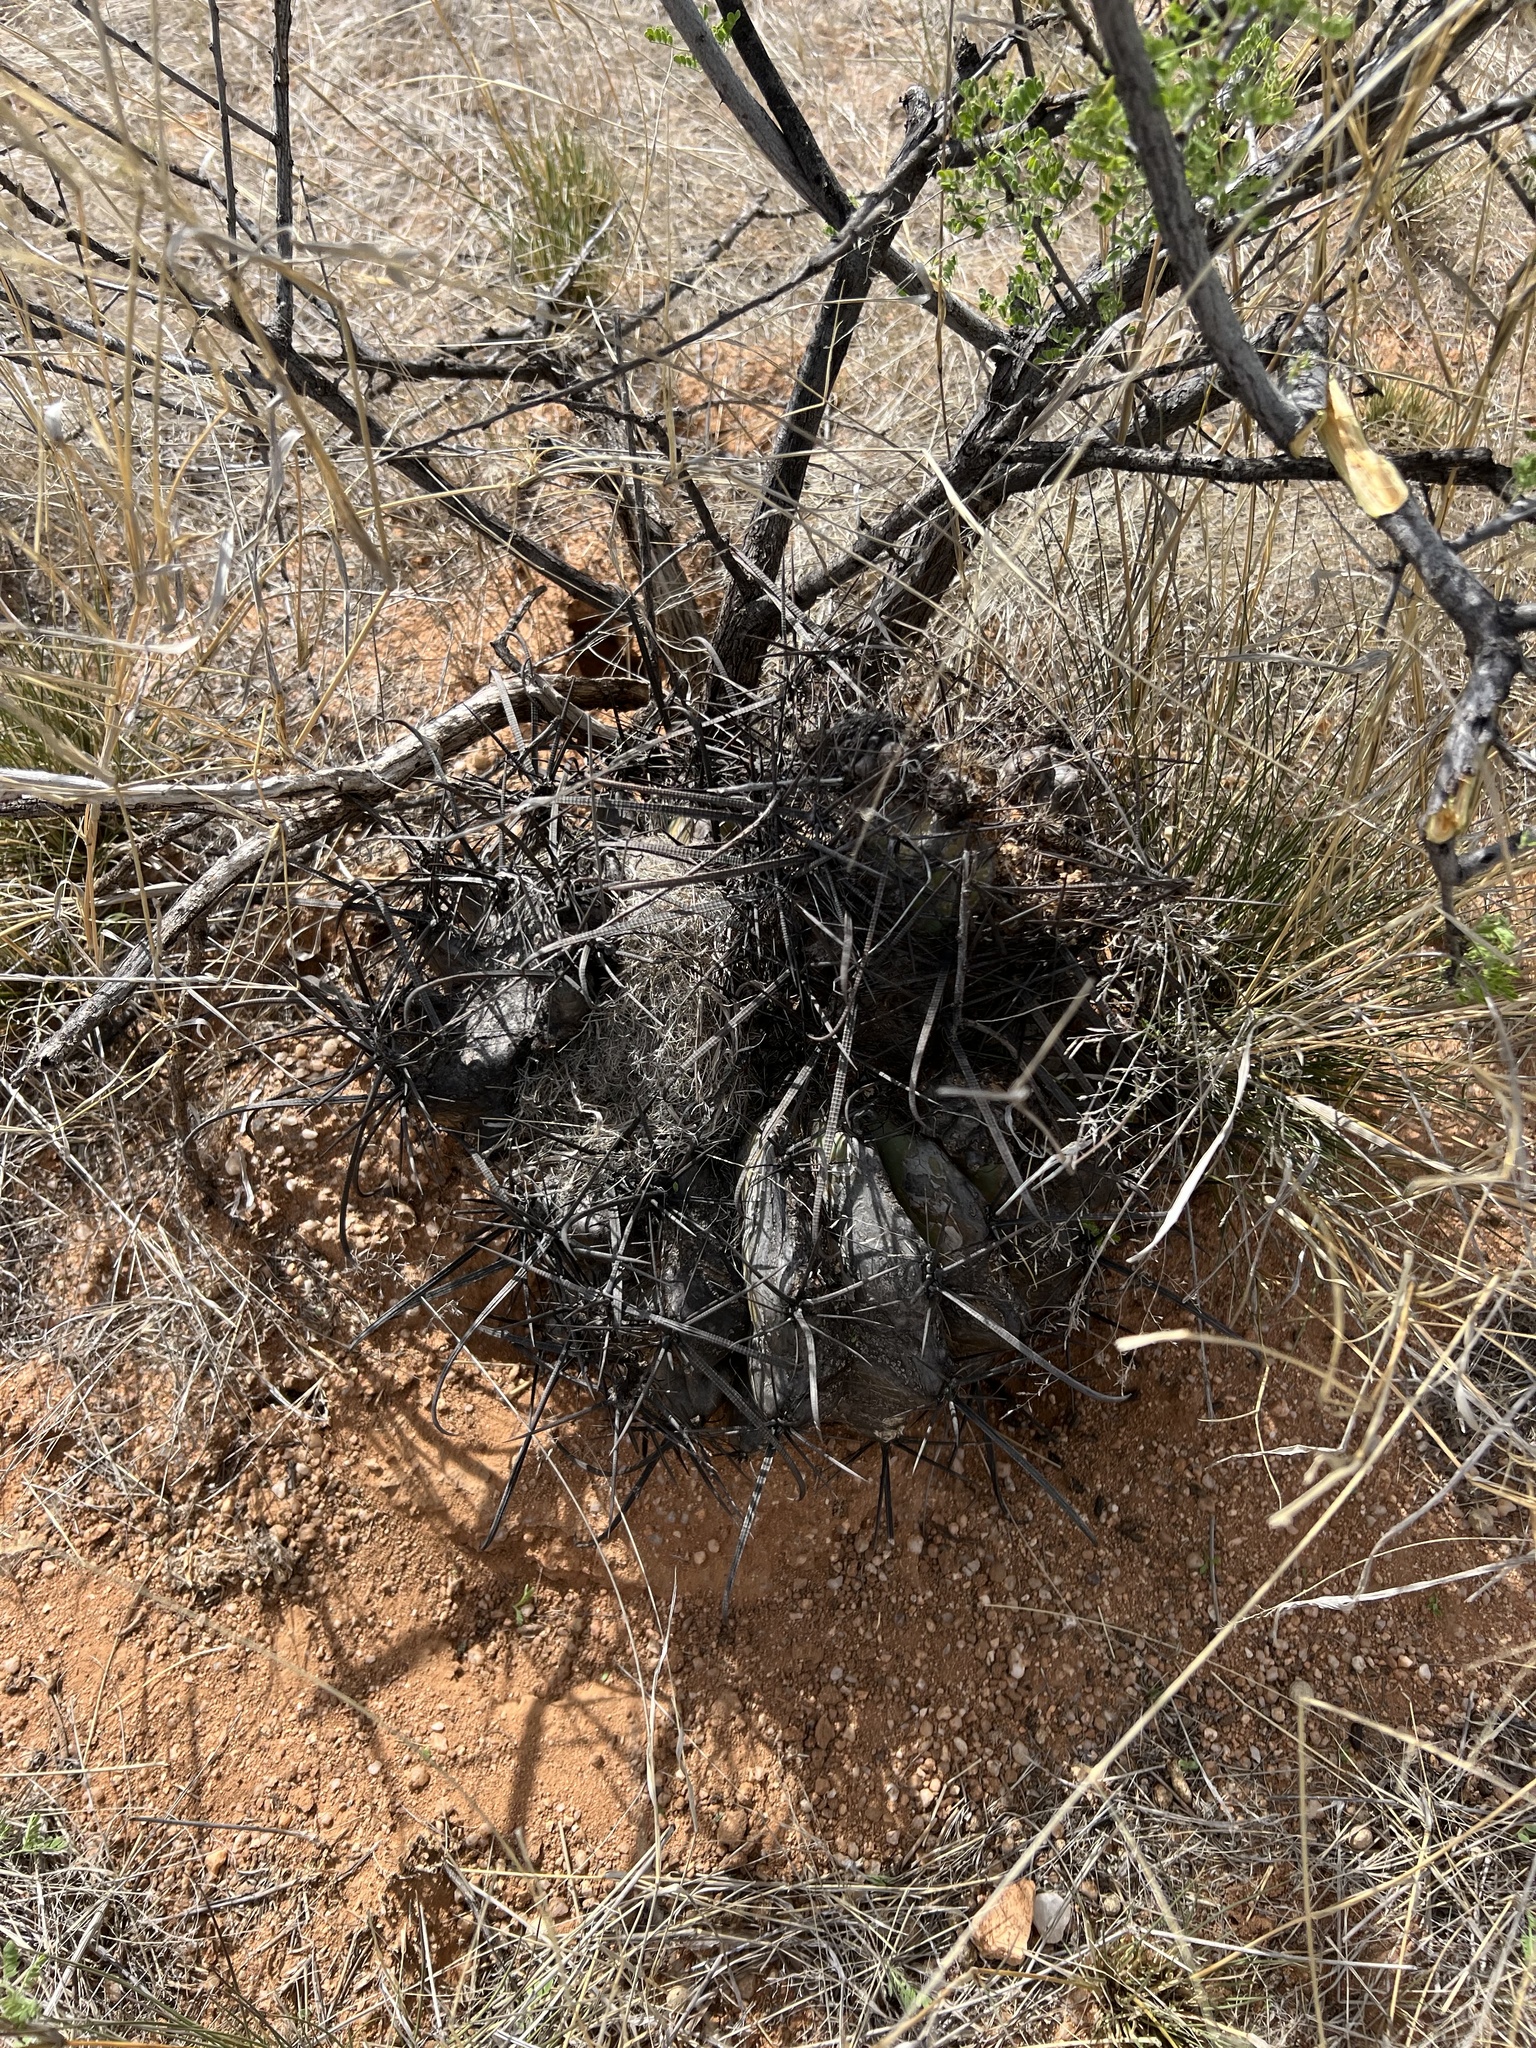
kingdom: Plantae
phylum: Tracheophyta
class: Magnoliopsida
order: Caryophyllales
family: Cactaceae
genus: Ferocactus
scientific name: Ferocactus wislizeni
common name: Candy barrel cactus
